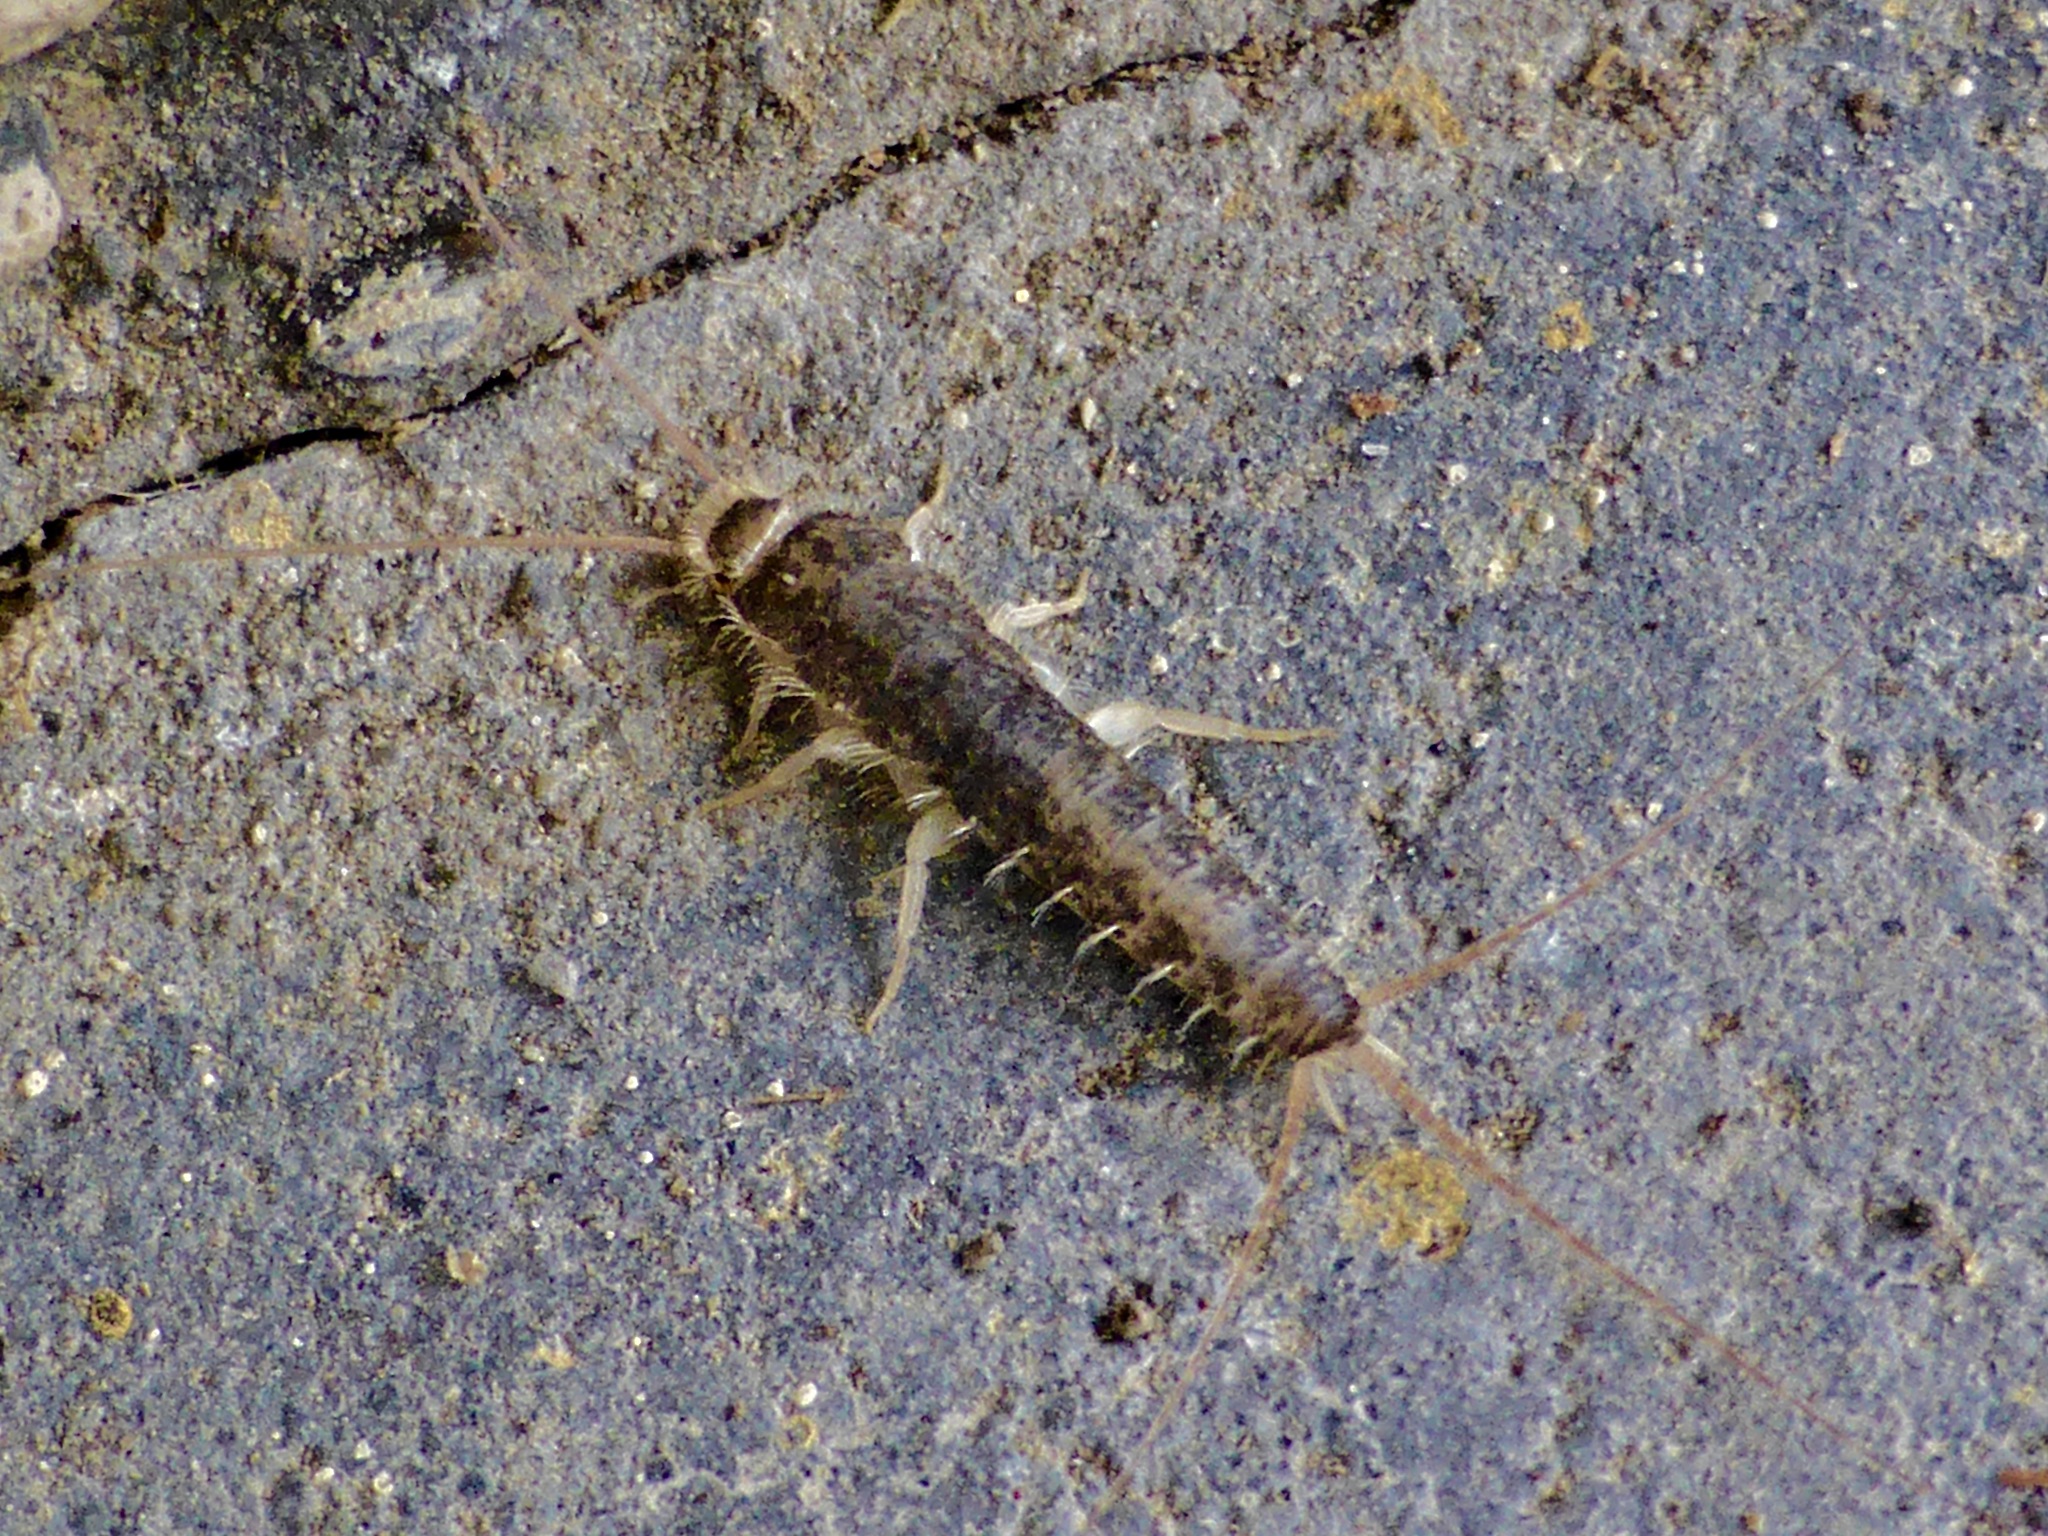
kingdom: Animalia
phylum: Arthropoda
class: Insecta
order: Zygentoma
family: Lepismatidae
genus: Ctenolepisma
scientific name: Ctenolepisma longicaudatum
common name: Silverfish
